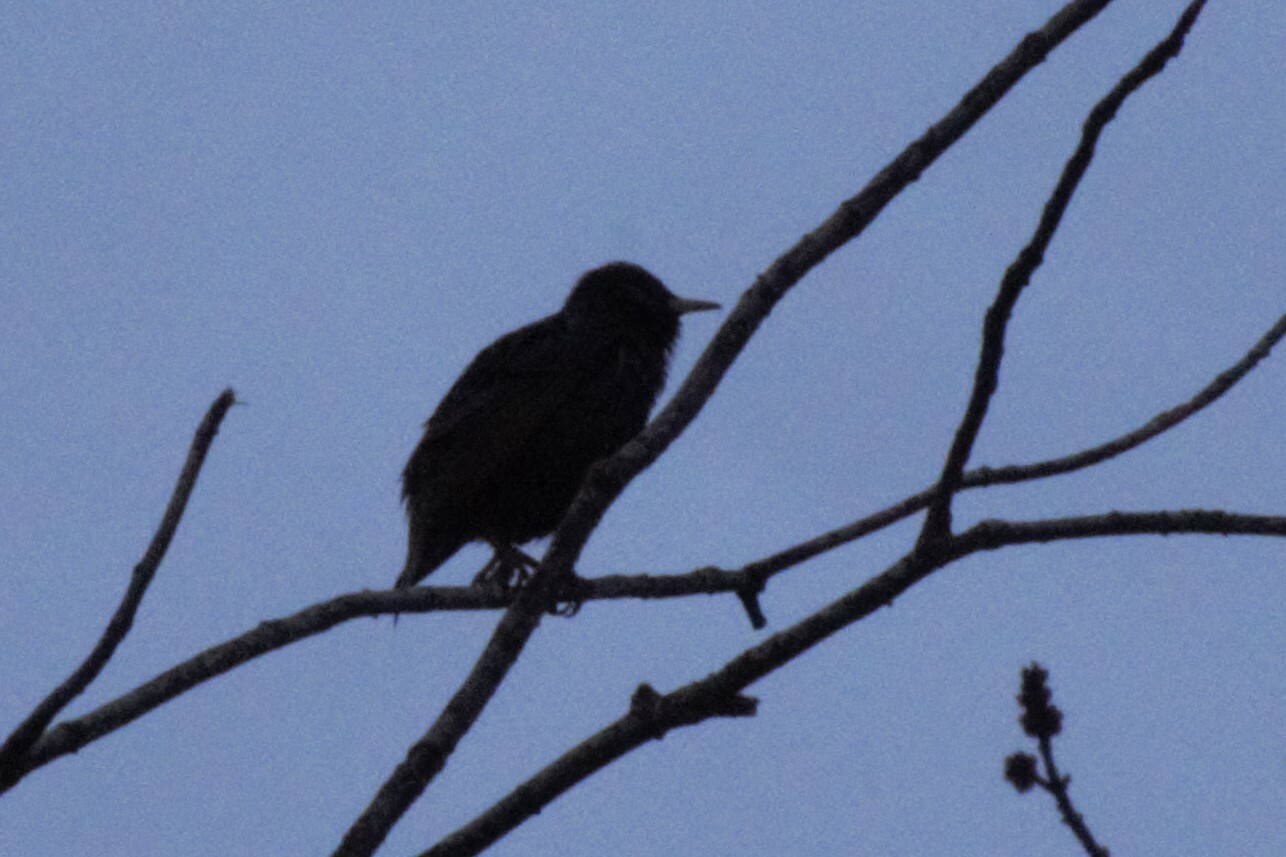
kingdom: Animalia
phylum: Chordata
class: Aves
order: Passeriformes
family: Sturnidae
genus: Sturnus
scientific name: Sturnus vulgaris
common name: Common starling
